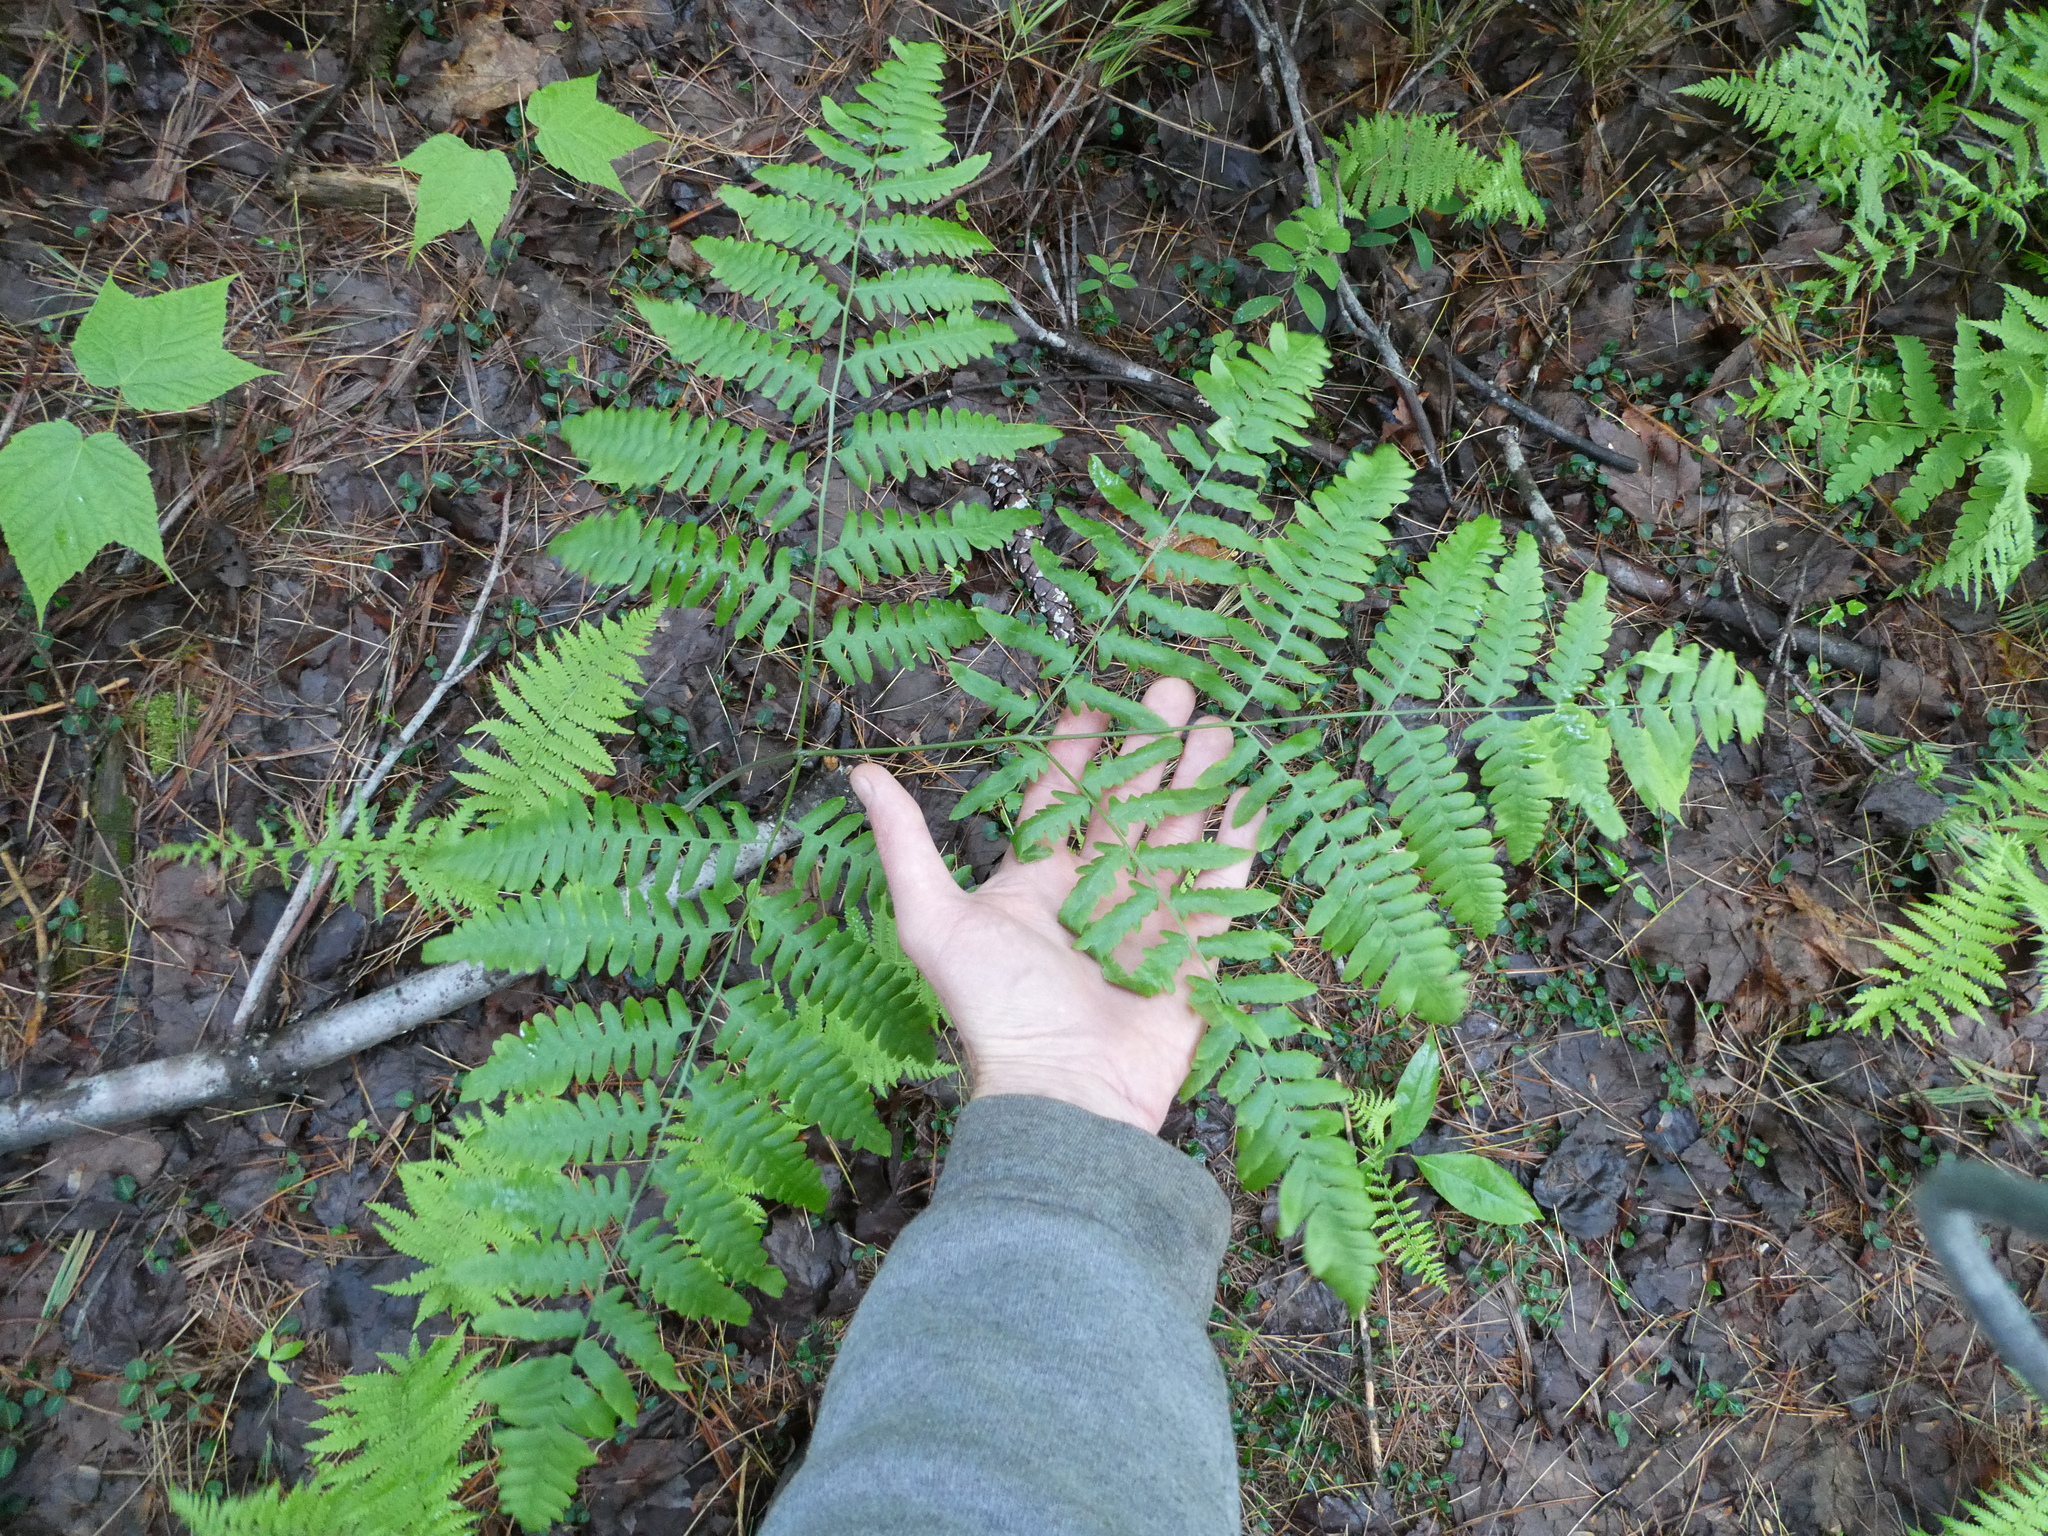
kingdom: Plantae
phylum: Tracheophyta
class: Polypodiopsida
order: Polypodiales
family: Dennstaedtiaceae
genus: Pteridium
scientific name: Pteridium aquilinum
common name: Bracken
